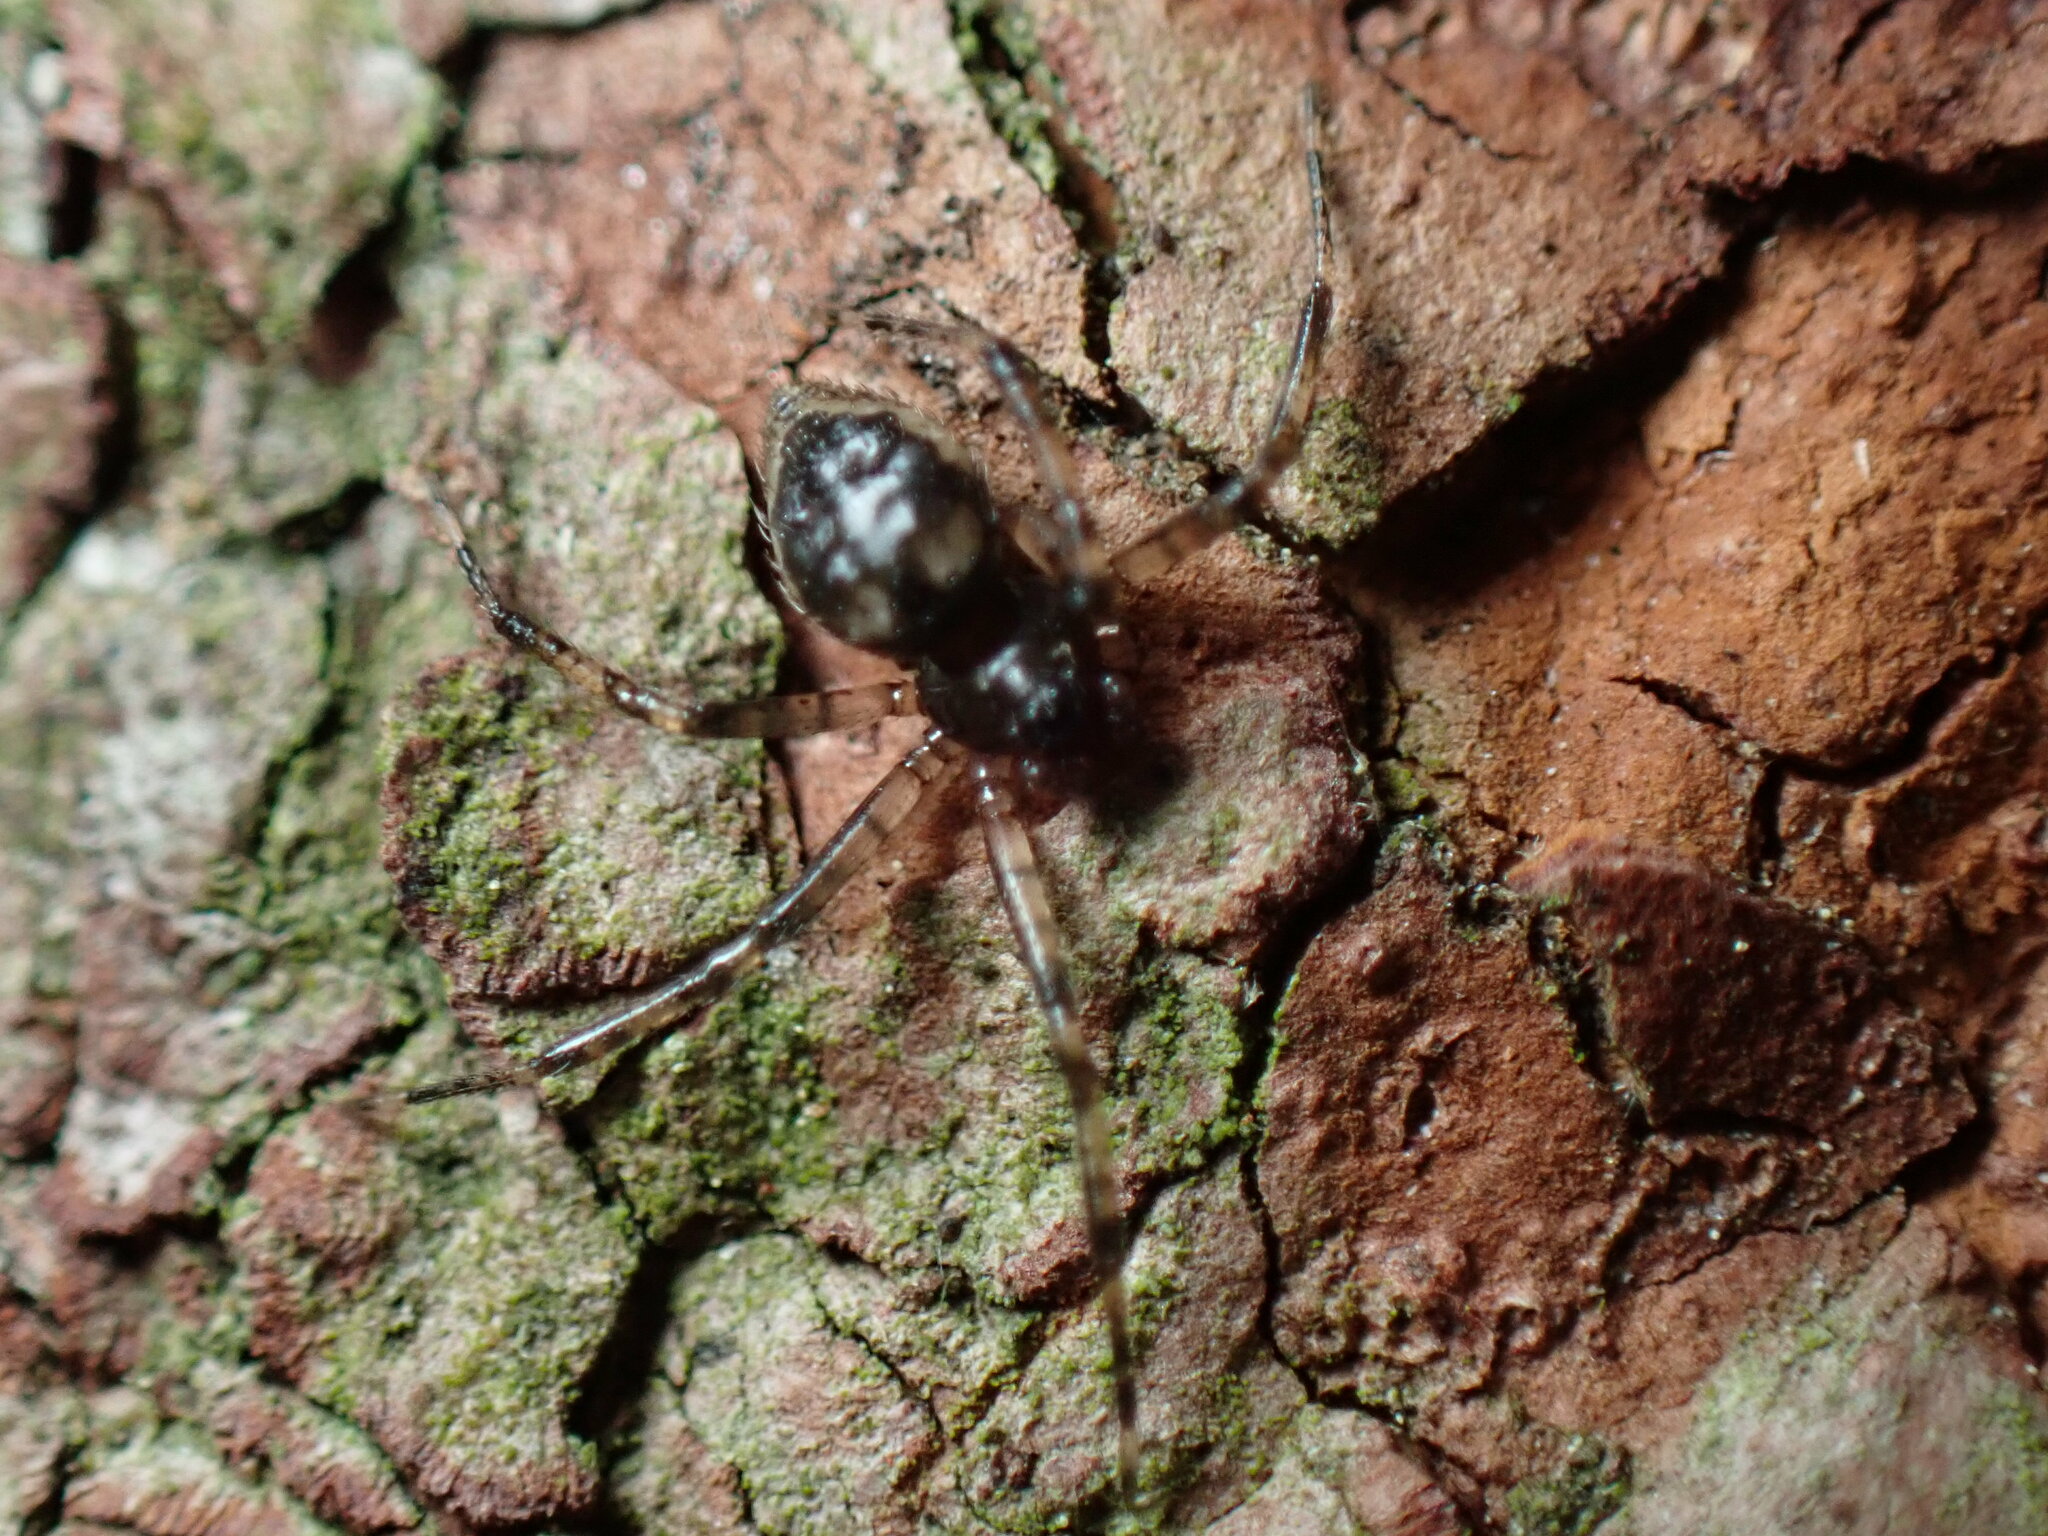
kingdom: Animalia
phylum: Arthropoda
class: Arachnida
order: Araneae
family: Theridiidae
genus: Euryopis
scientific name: Euryopis funebris
